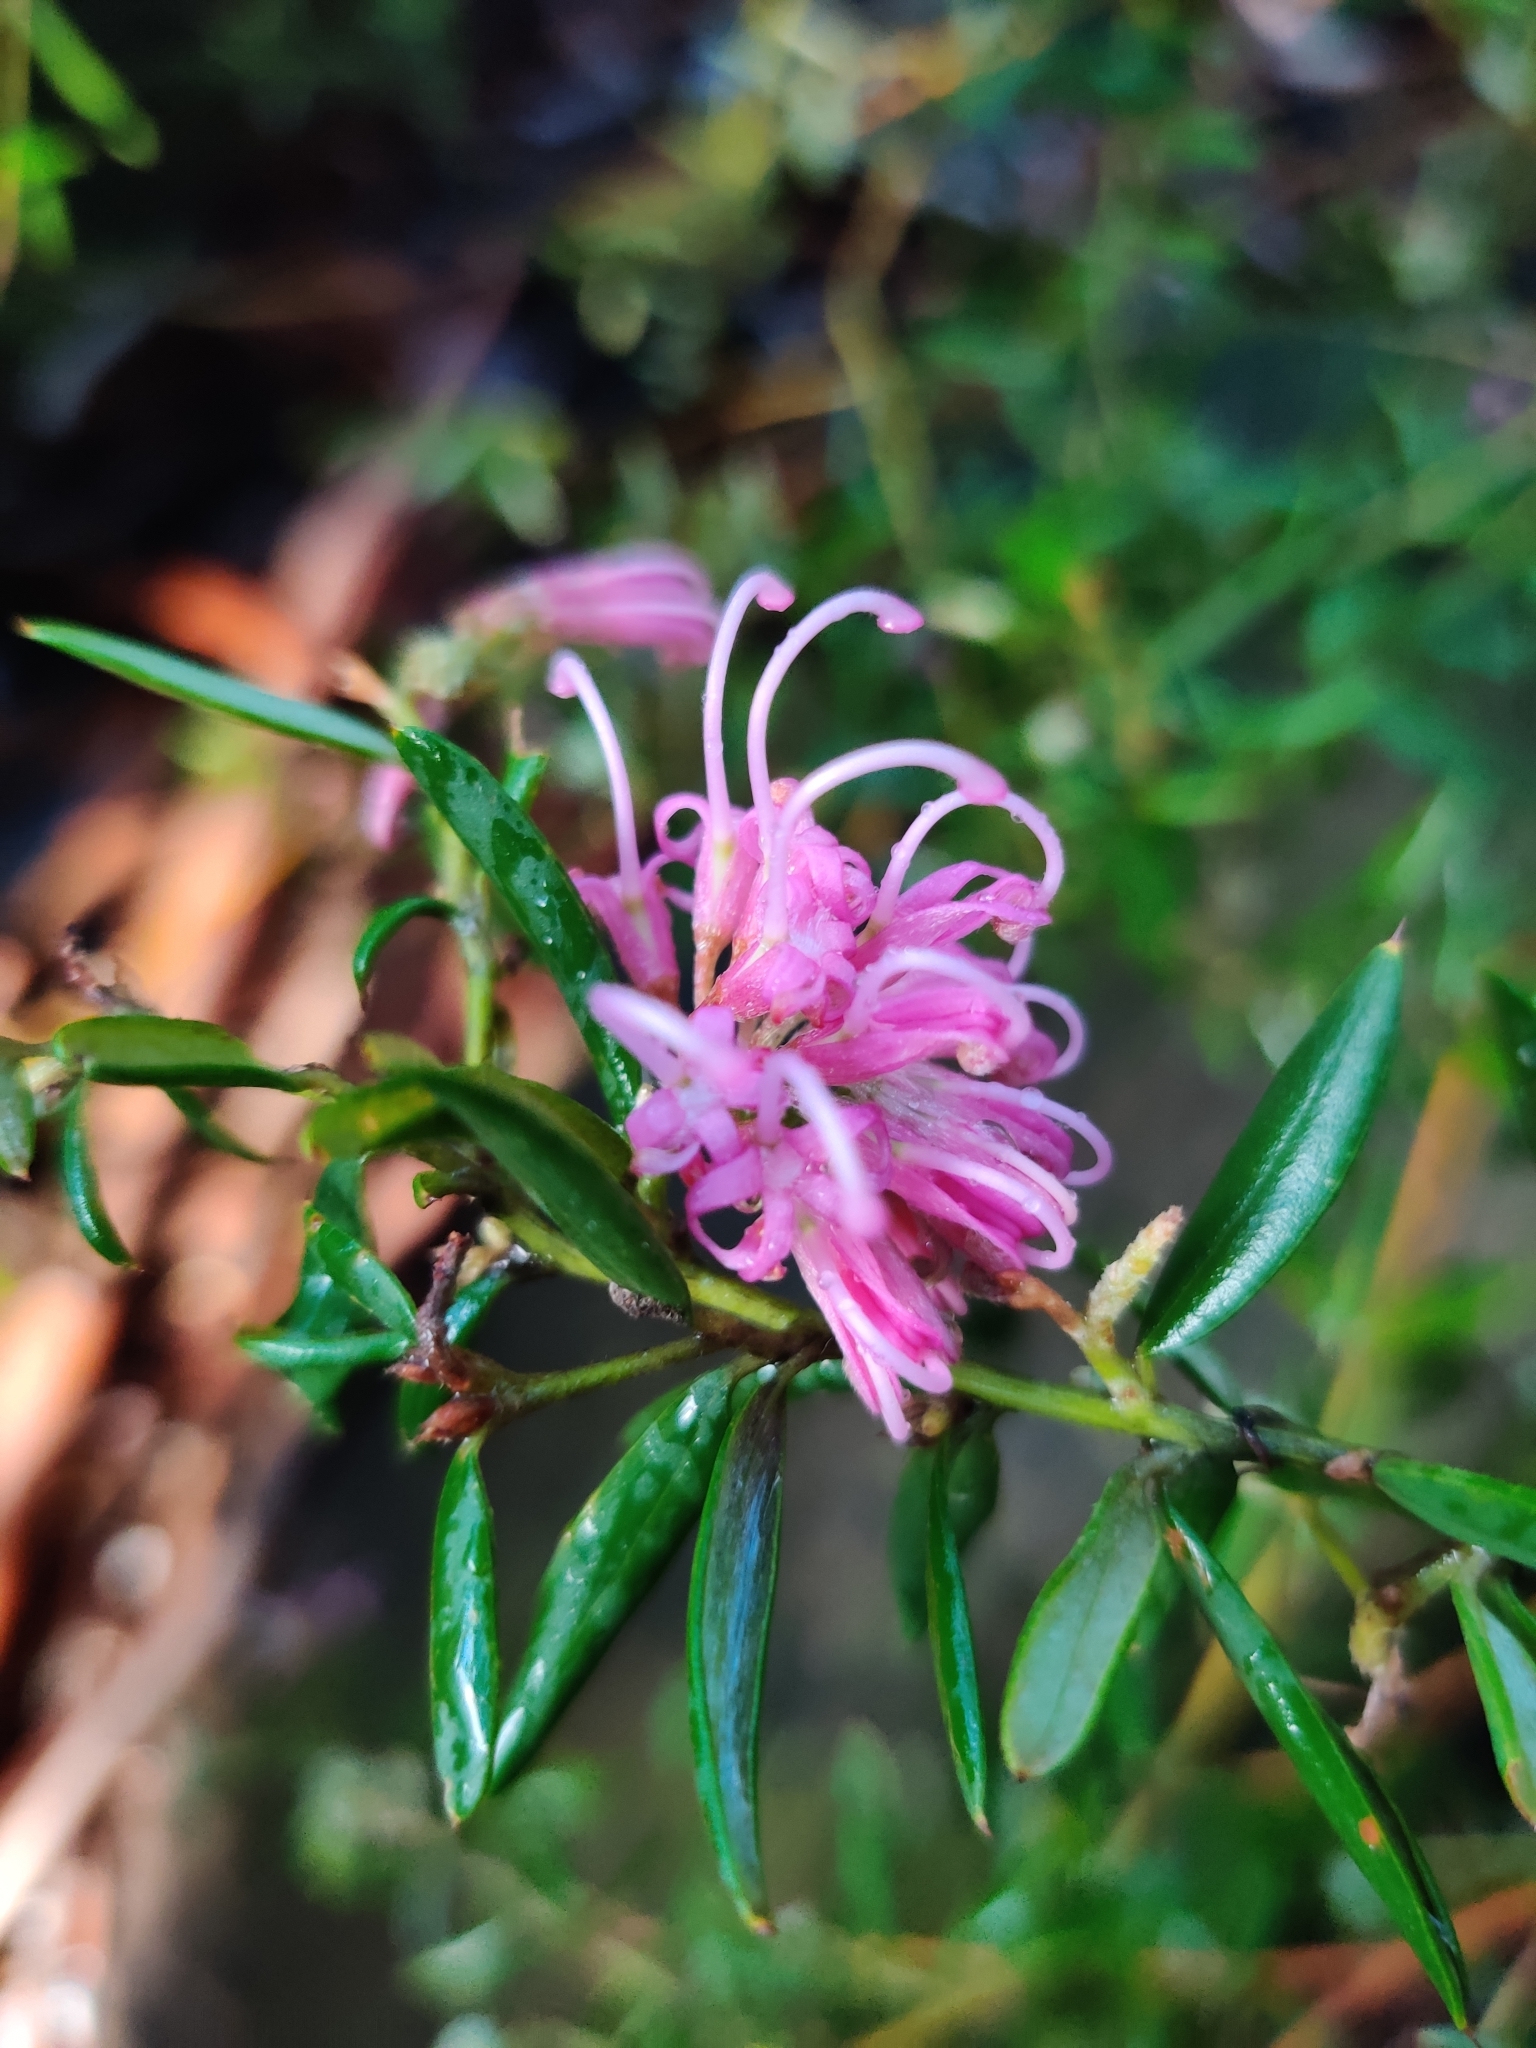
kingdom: Plantae
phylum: Tracheophyta
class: Magnoliopsida
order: Proteales
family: Proteaceae
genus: Grevillea
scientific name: Grevillea sericea
